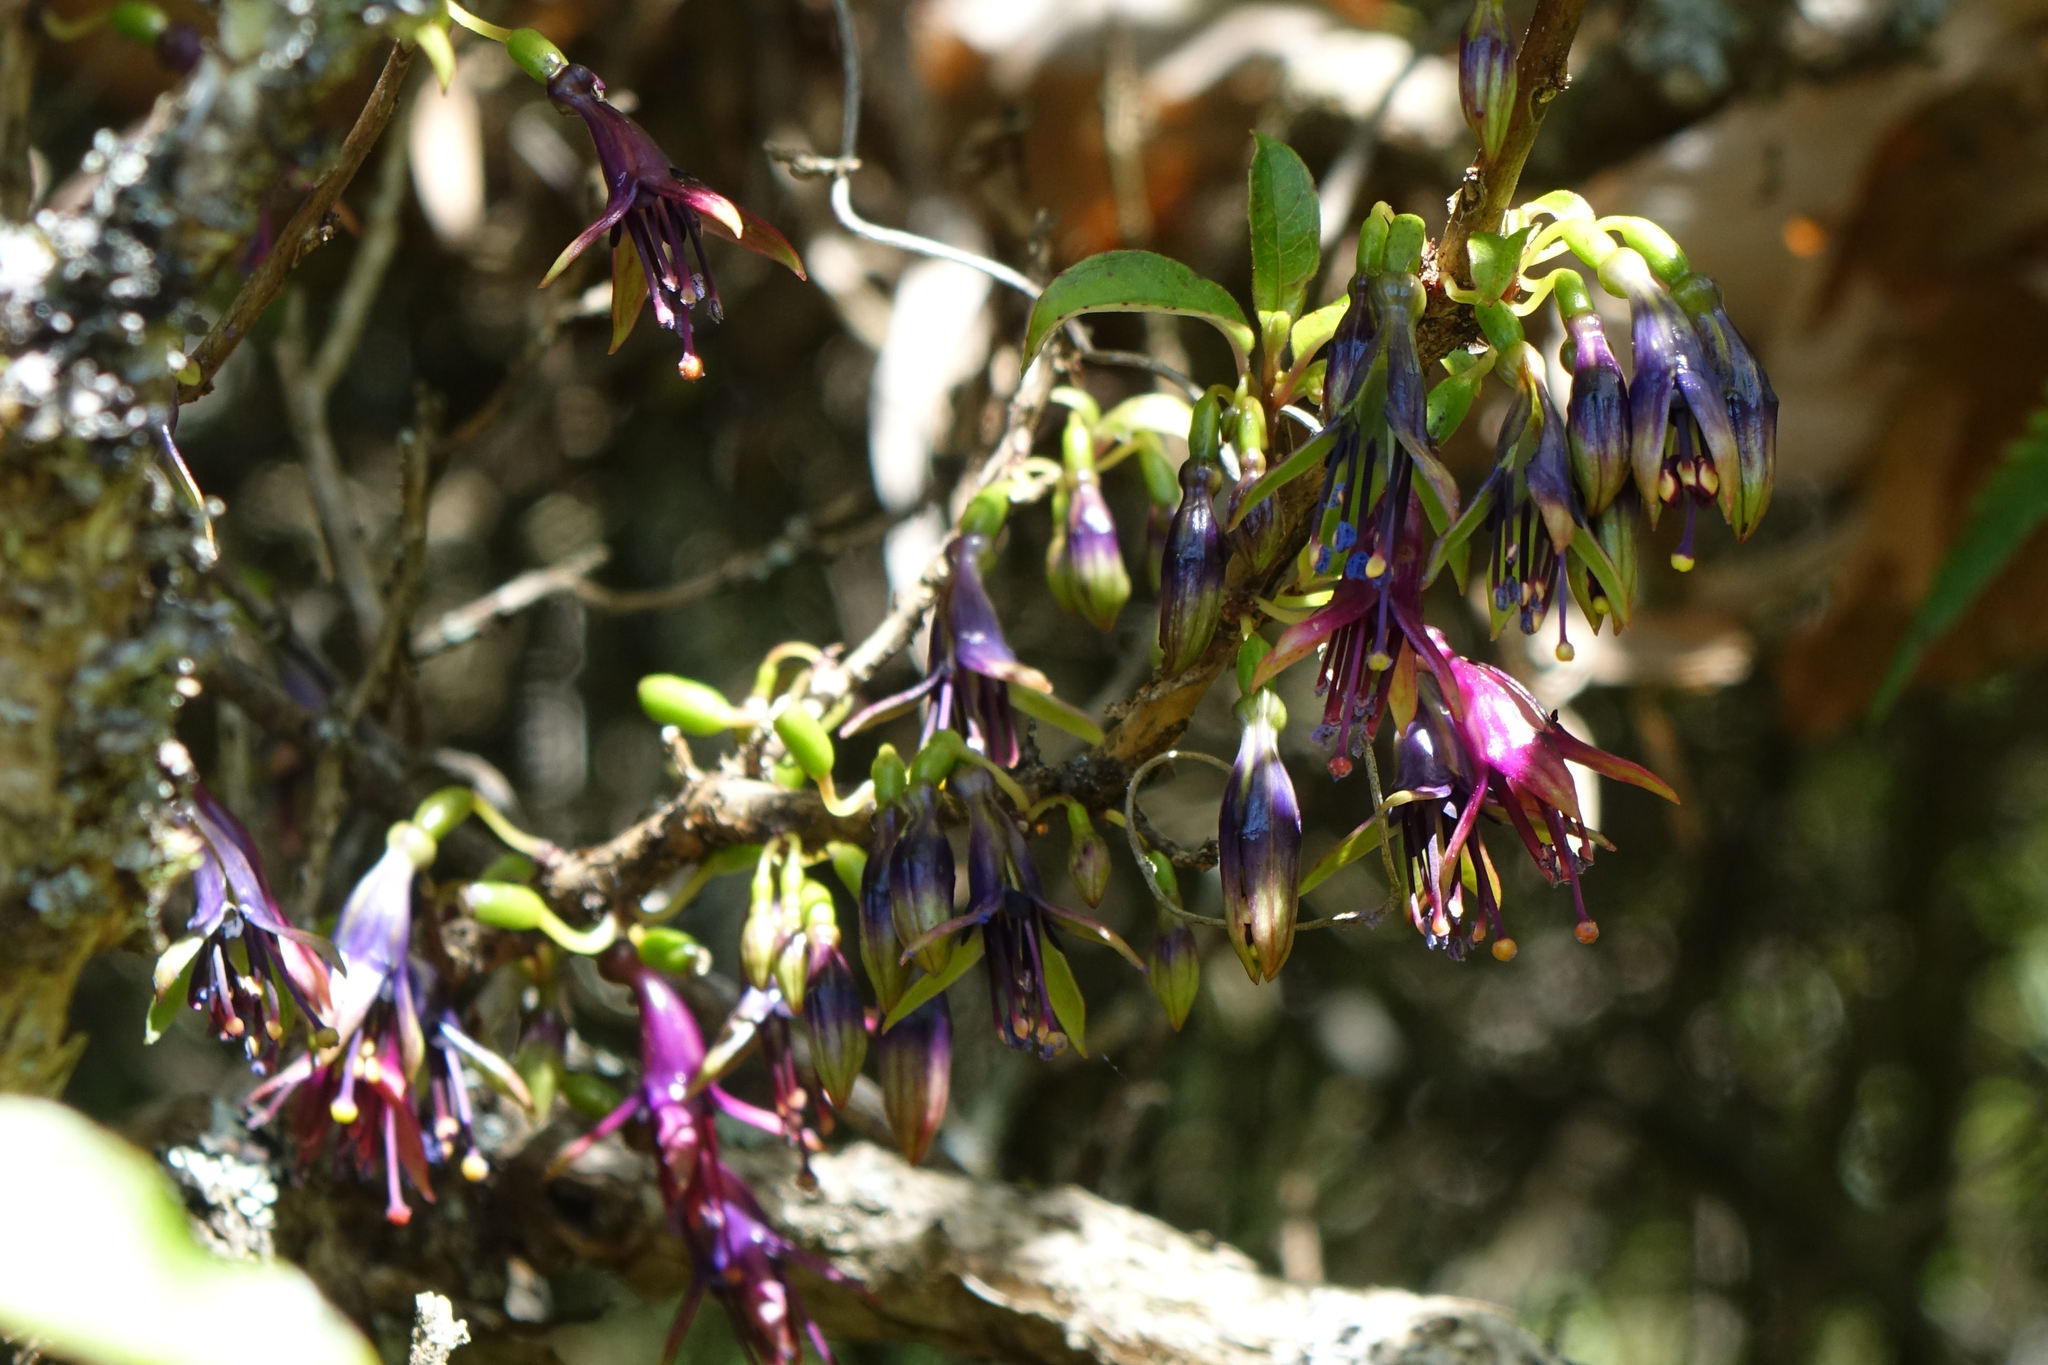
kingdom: Plantae
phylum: Tracheophyta
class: Magnoliopsida
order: Myrtales
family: Onagraceae
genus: Fuchsia
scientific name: Fuchsia excorticata
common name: Tree fuchsia
